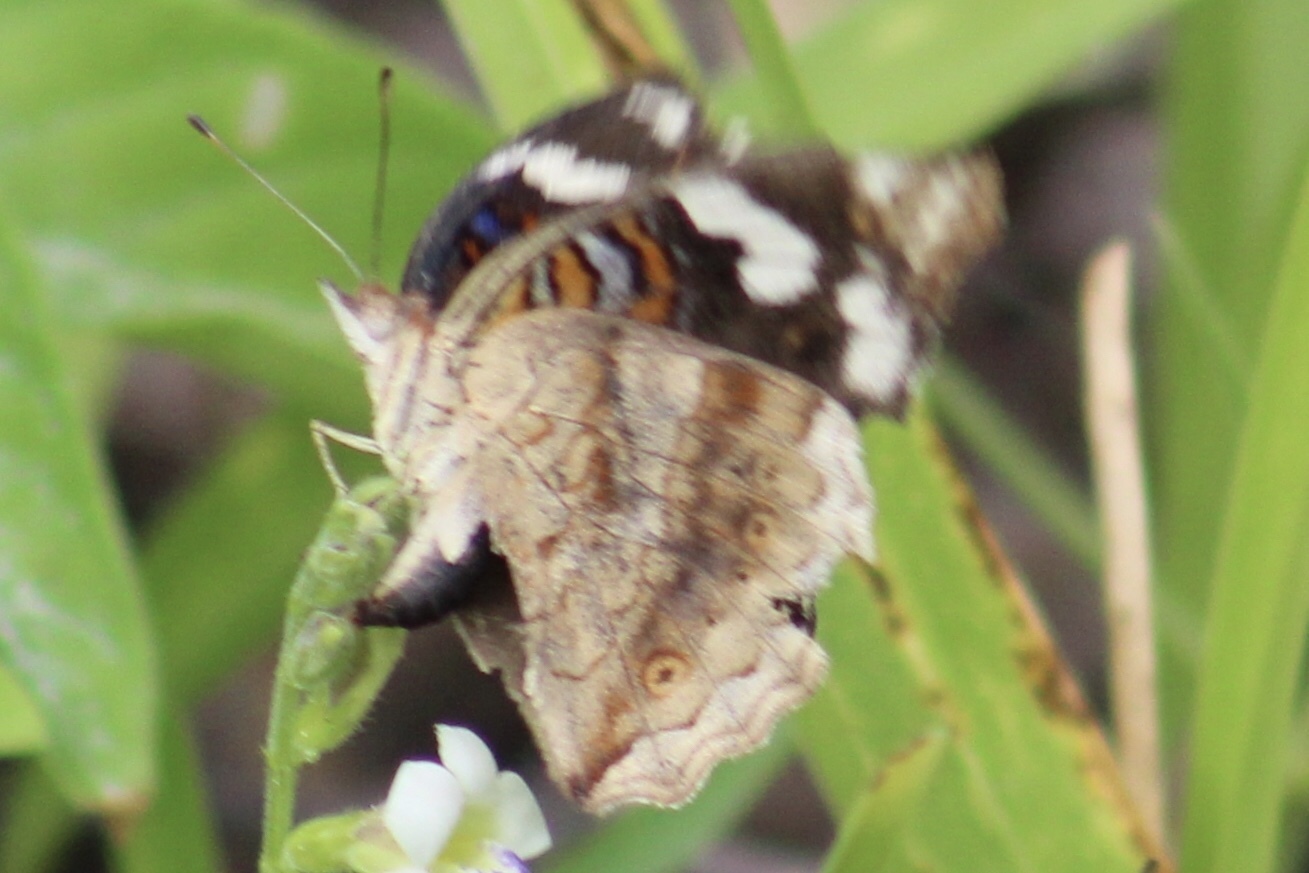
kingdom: Animalia
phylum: Arthropoda
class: Insecta
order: Lepidoptera
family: Nymphalidae
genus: Junonia
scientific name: Junonia oenone
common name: Dark blue pansy
